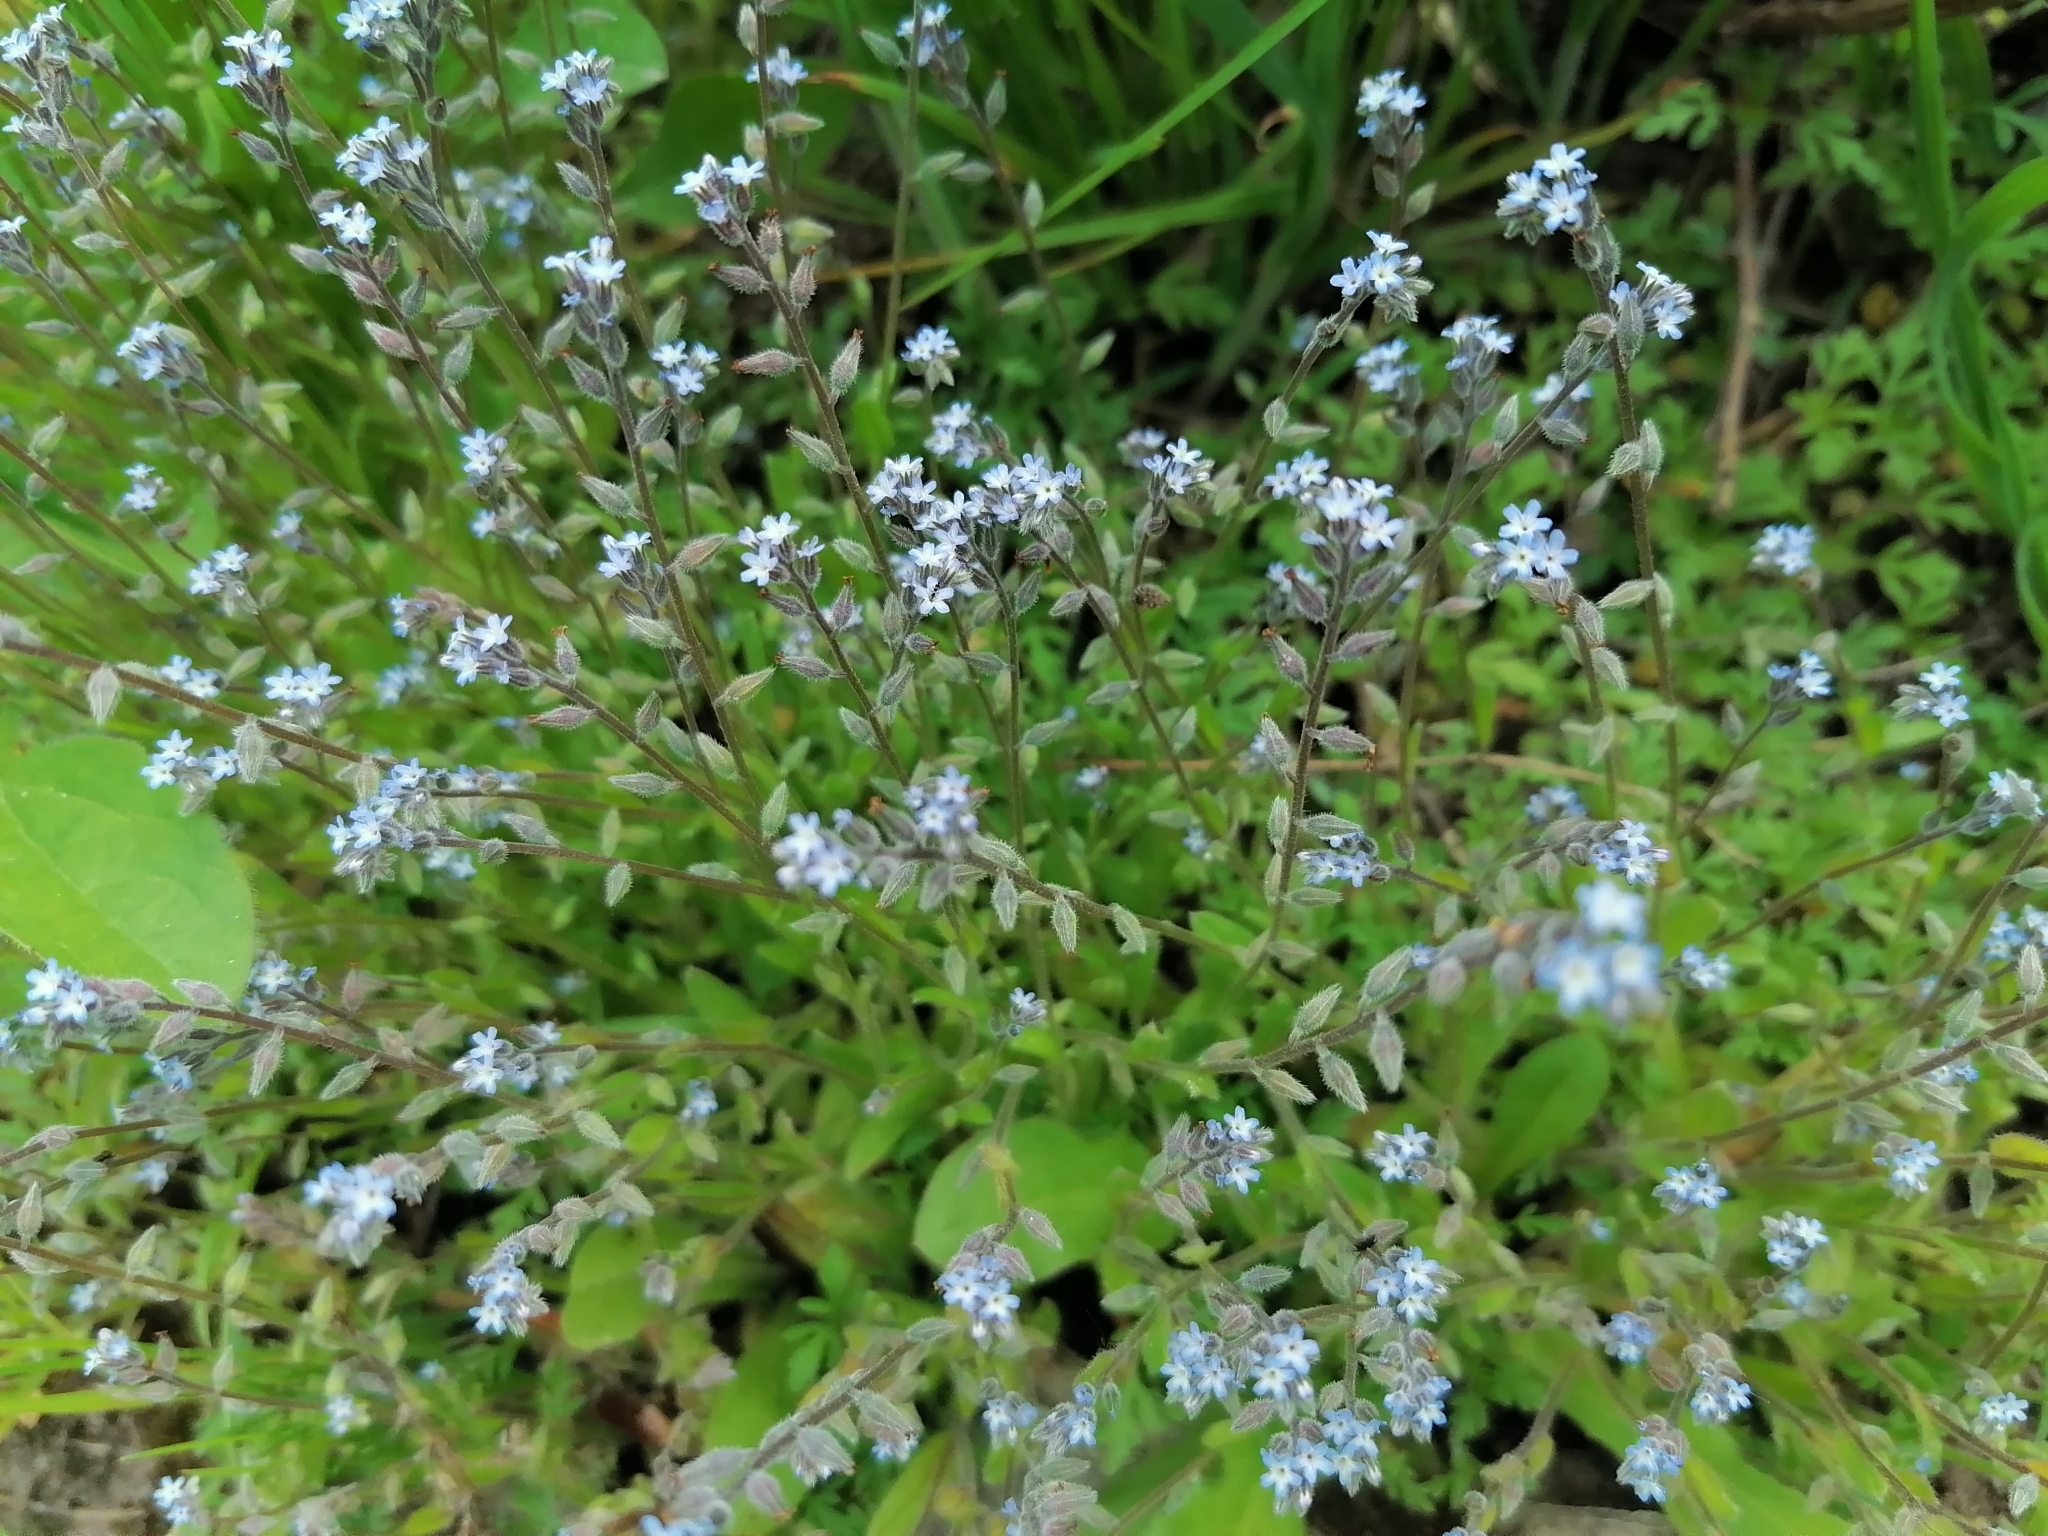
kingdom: Plantae
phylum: Tracheophyta
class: Magnoliopsida
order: Boraginales
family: Boraginaceae
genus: Myosotis
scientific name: Myosotis stricta
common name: Strict forget-me-not
